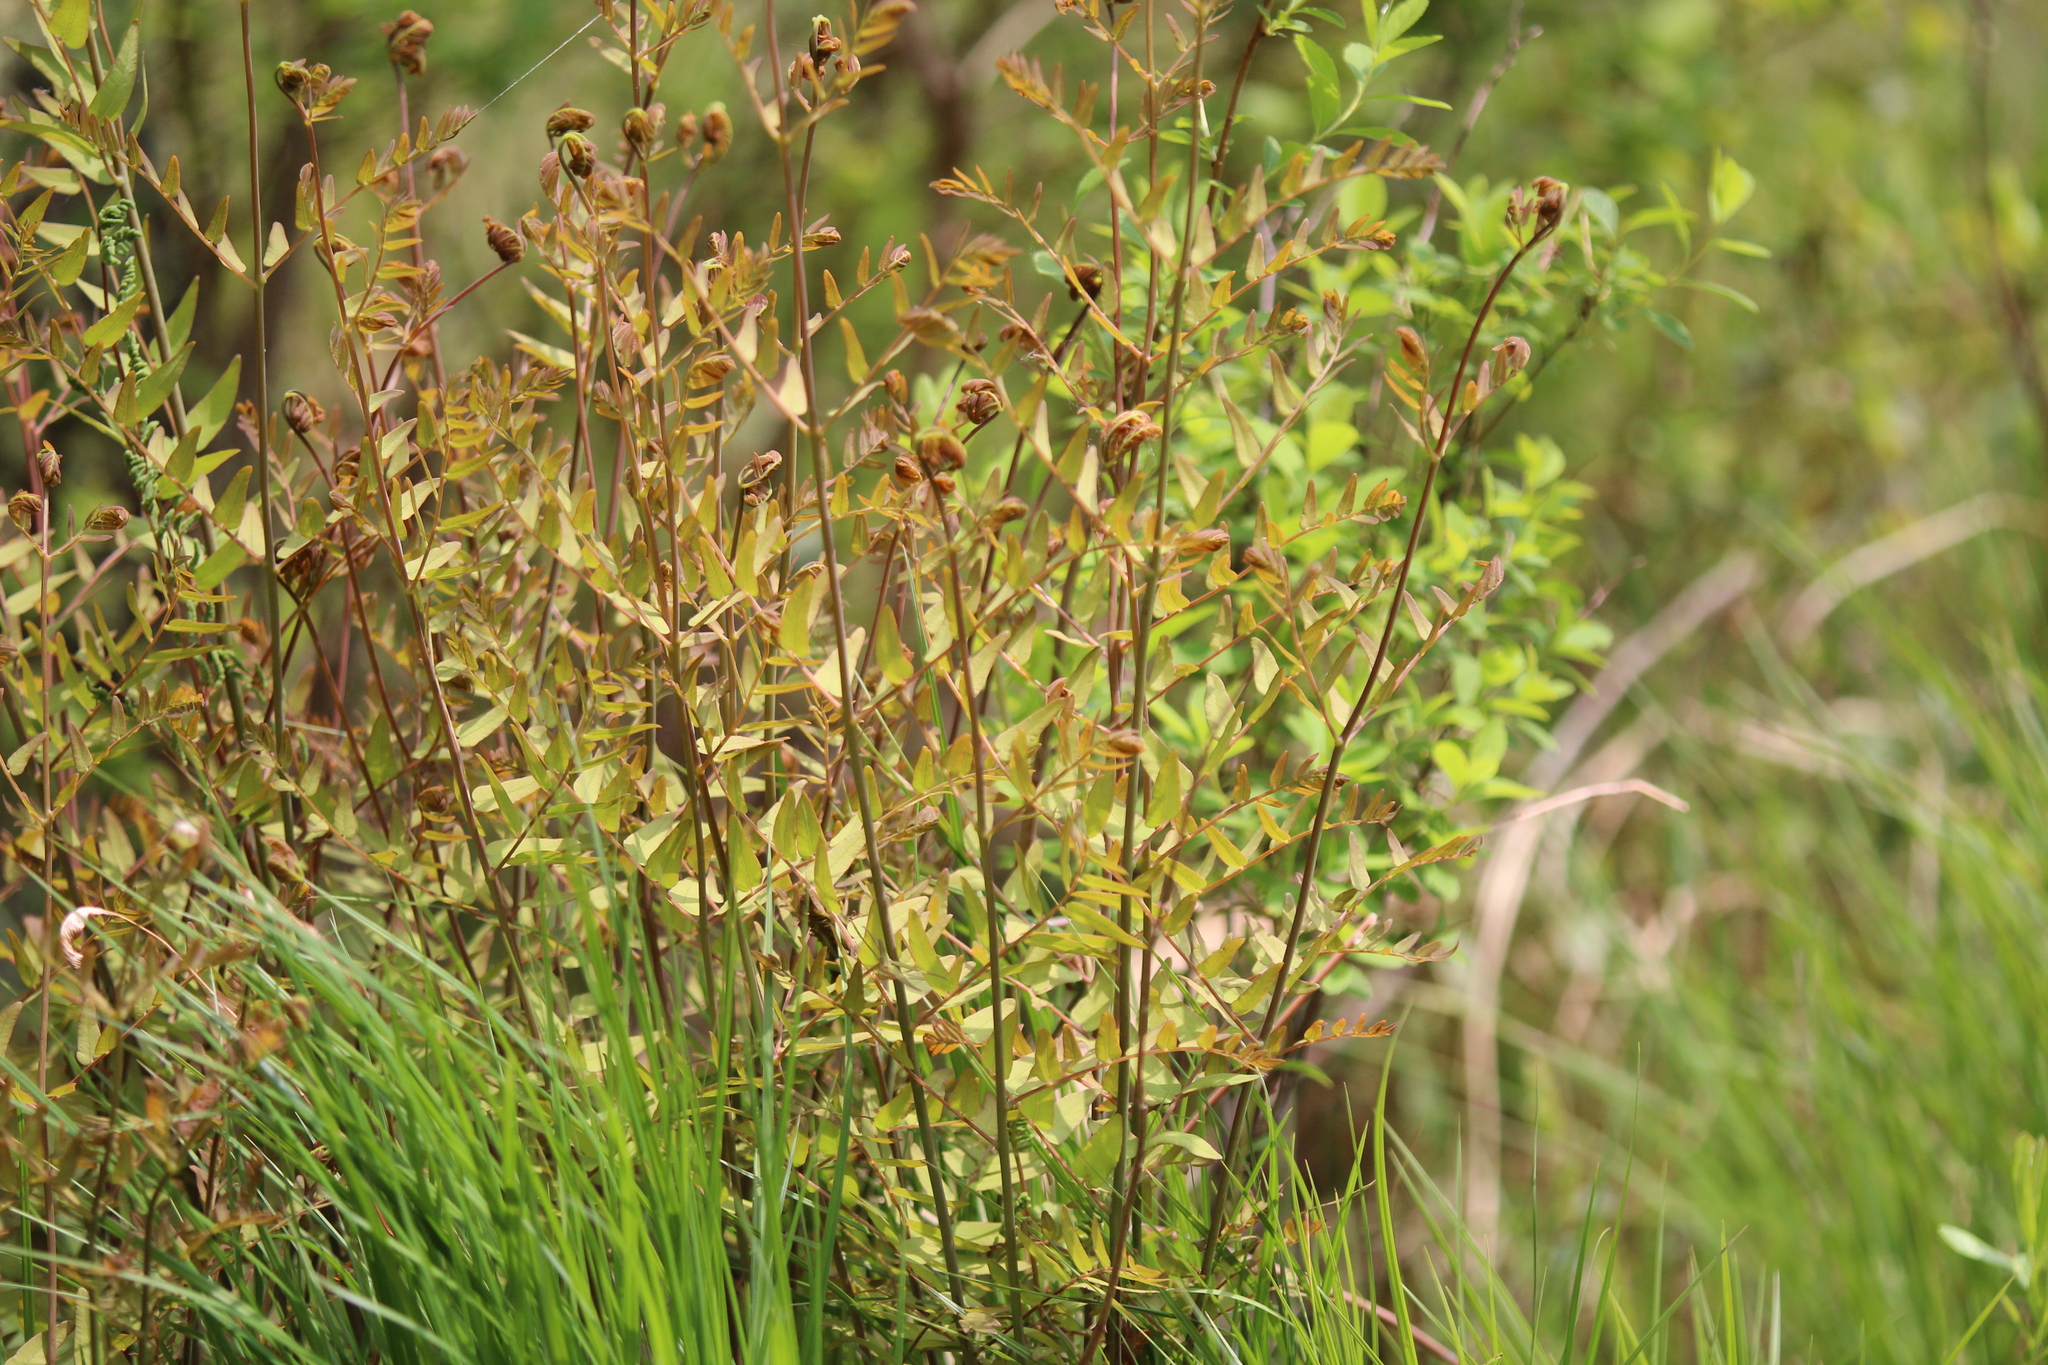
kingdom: Plantae
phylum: Tracheophyta
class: Polypodiopsida
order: Osmundales
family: Osmundaceae
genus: Osmunda
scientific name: Osmunda spectabilis
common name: American royal fern
